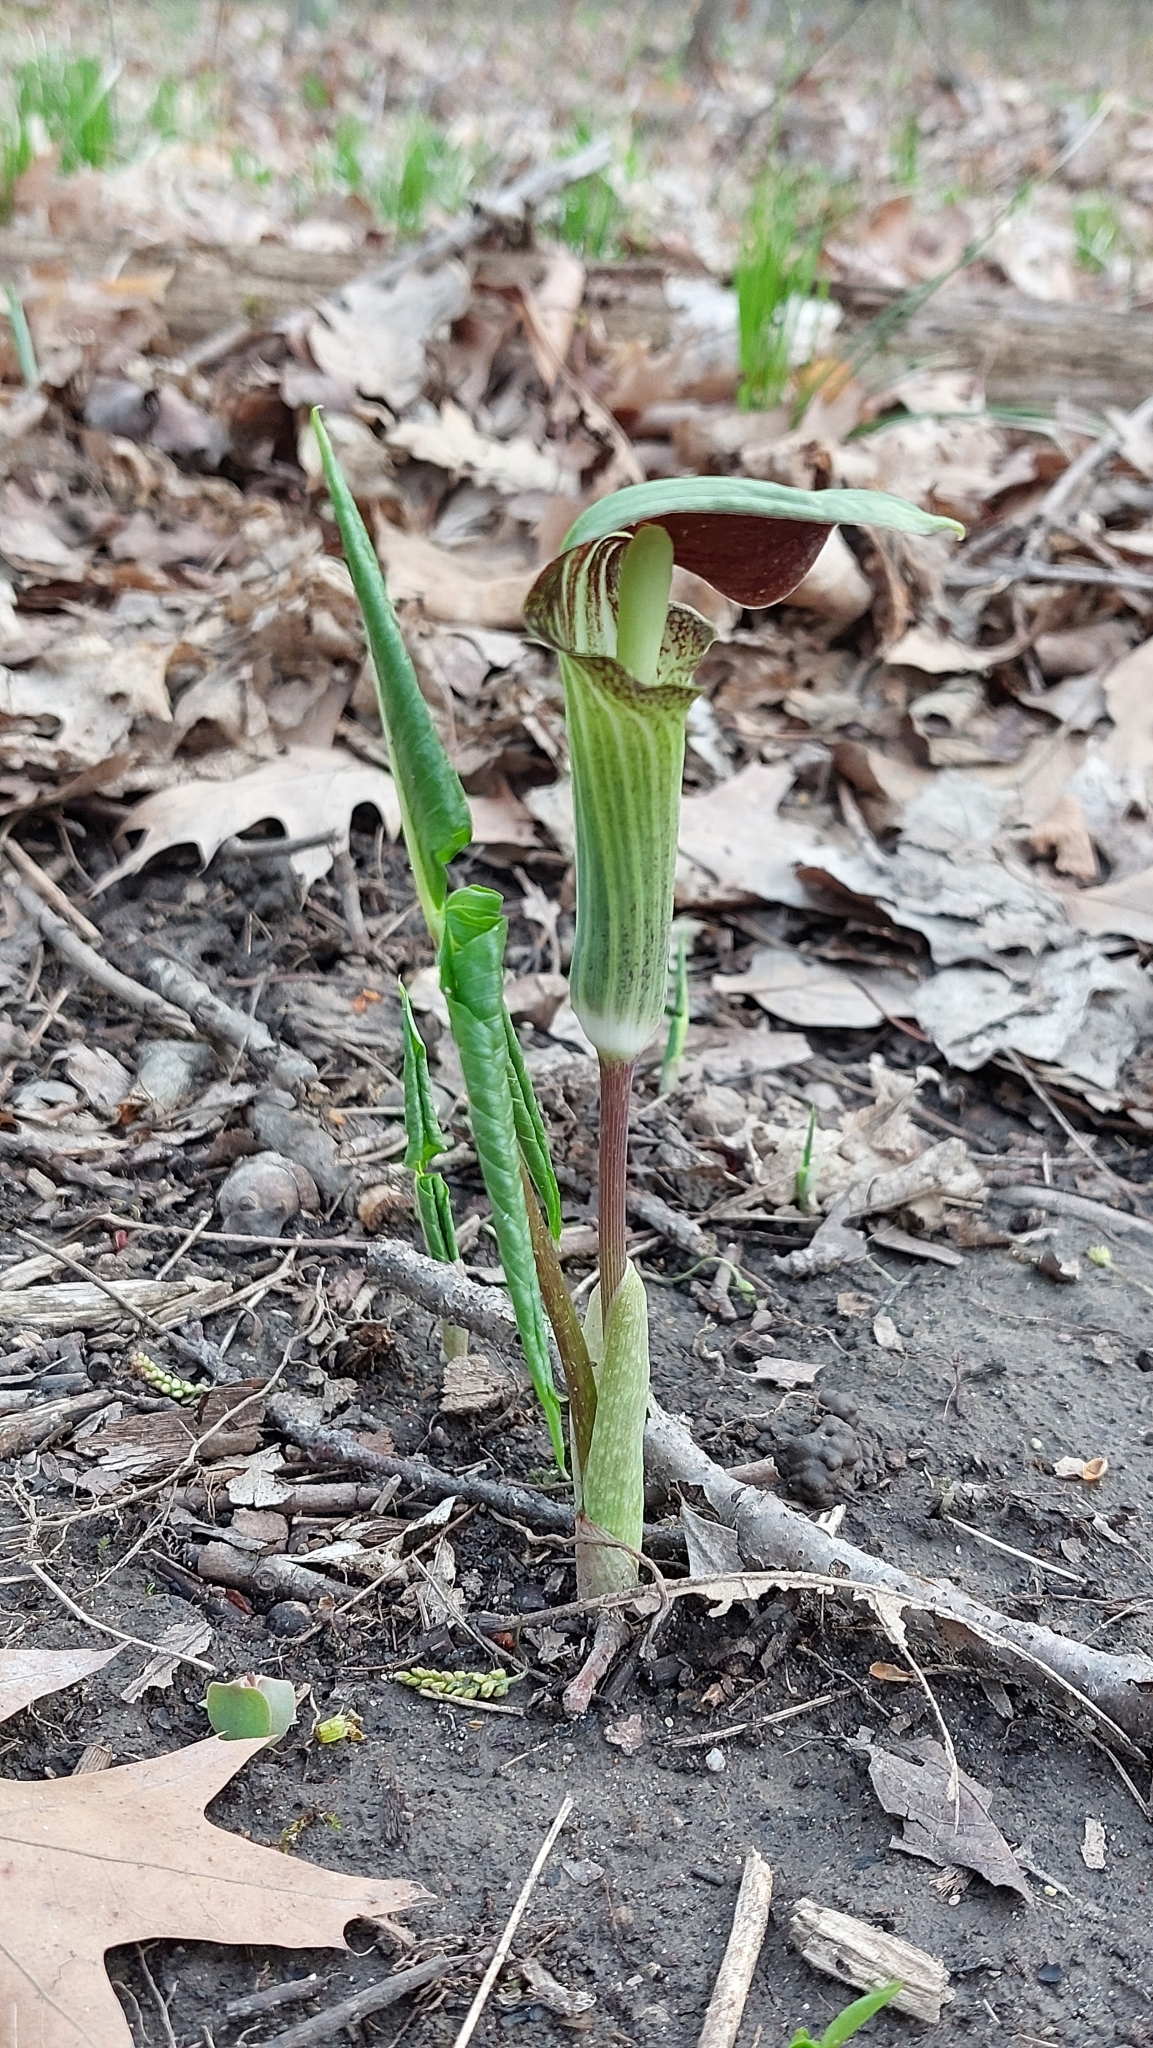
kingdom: Plantae
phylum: Tracheophyta
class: Liliopsida
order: Alismatales
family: Araceae
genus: Arisaema
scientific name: Arisaema triphyllum
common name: Jack-in-the-pulpit
